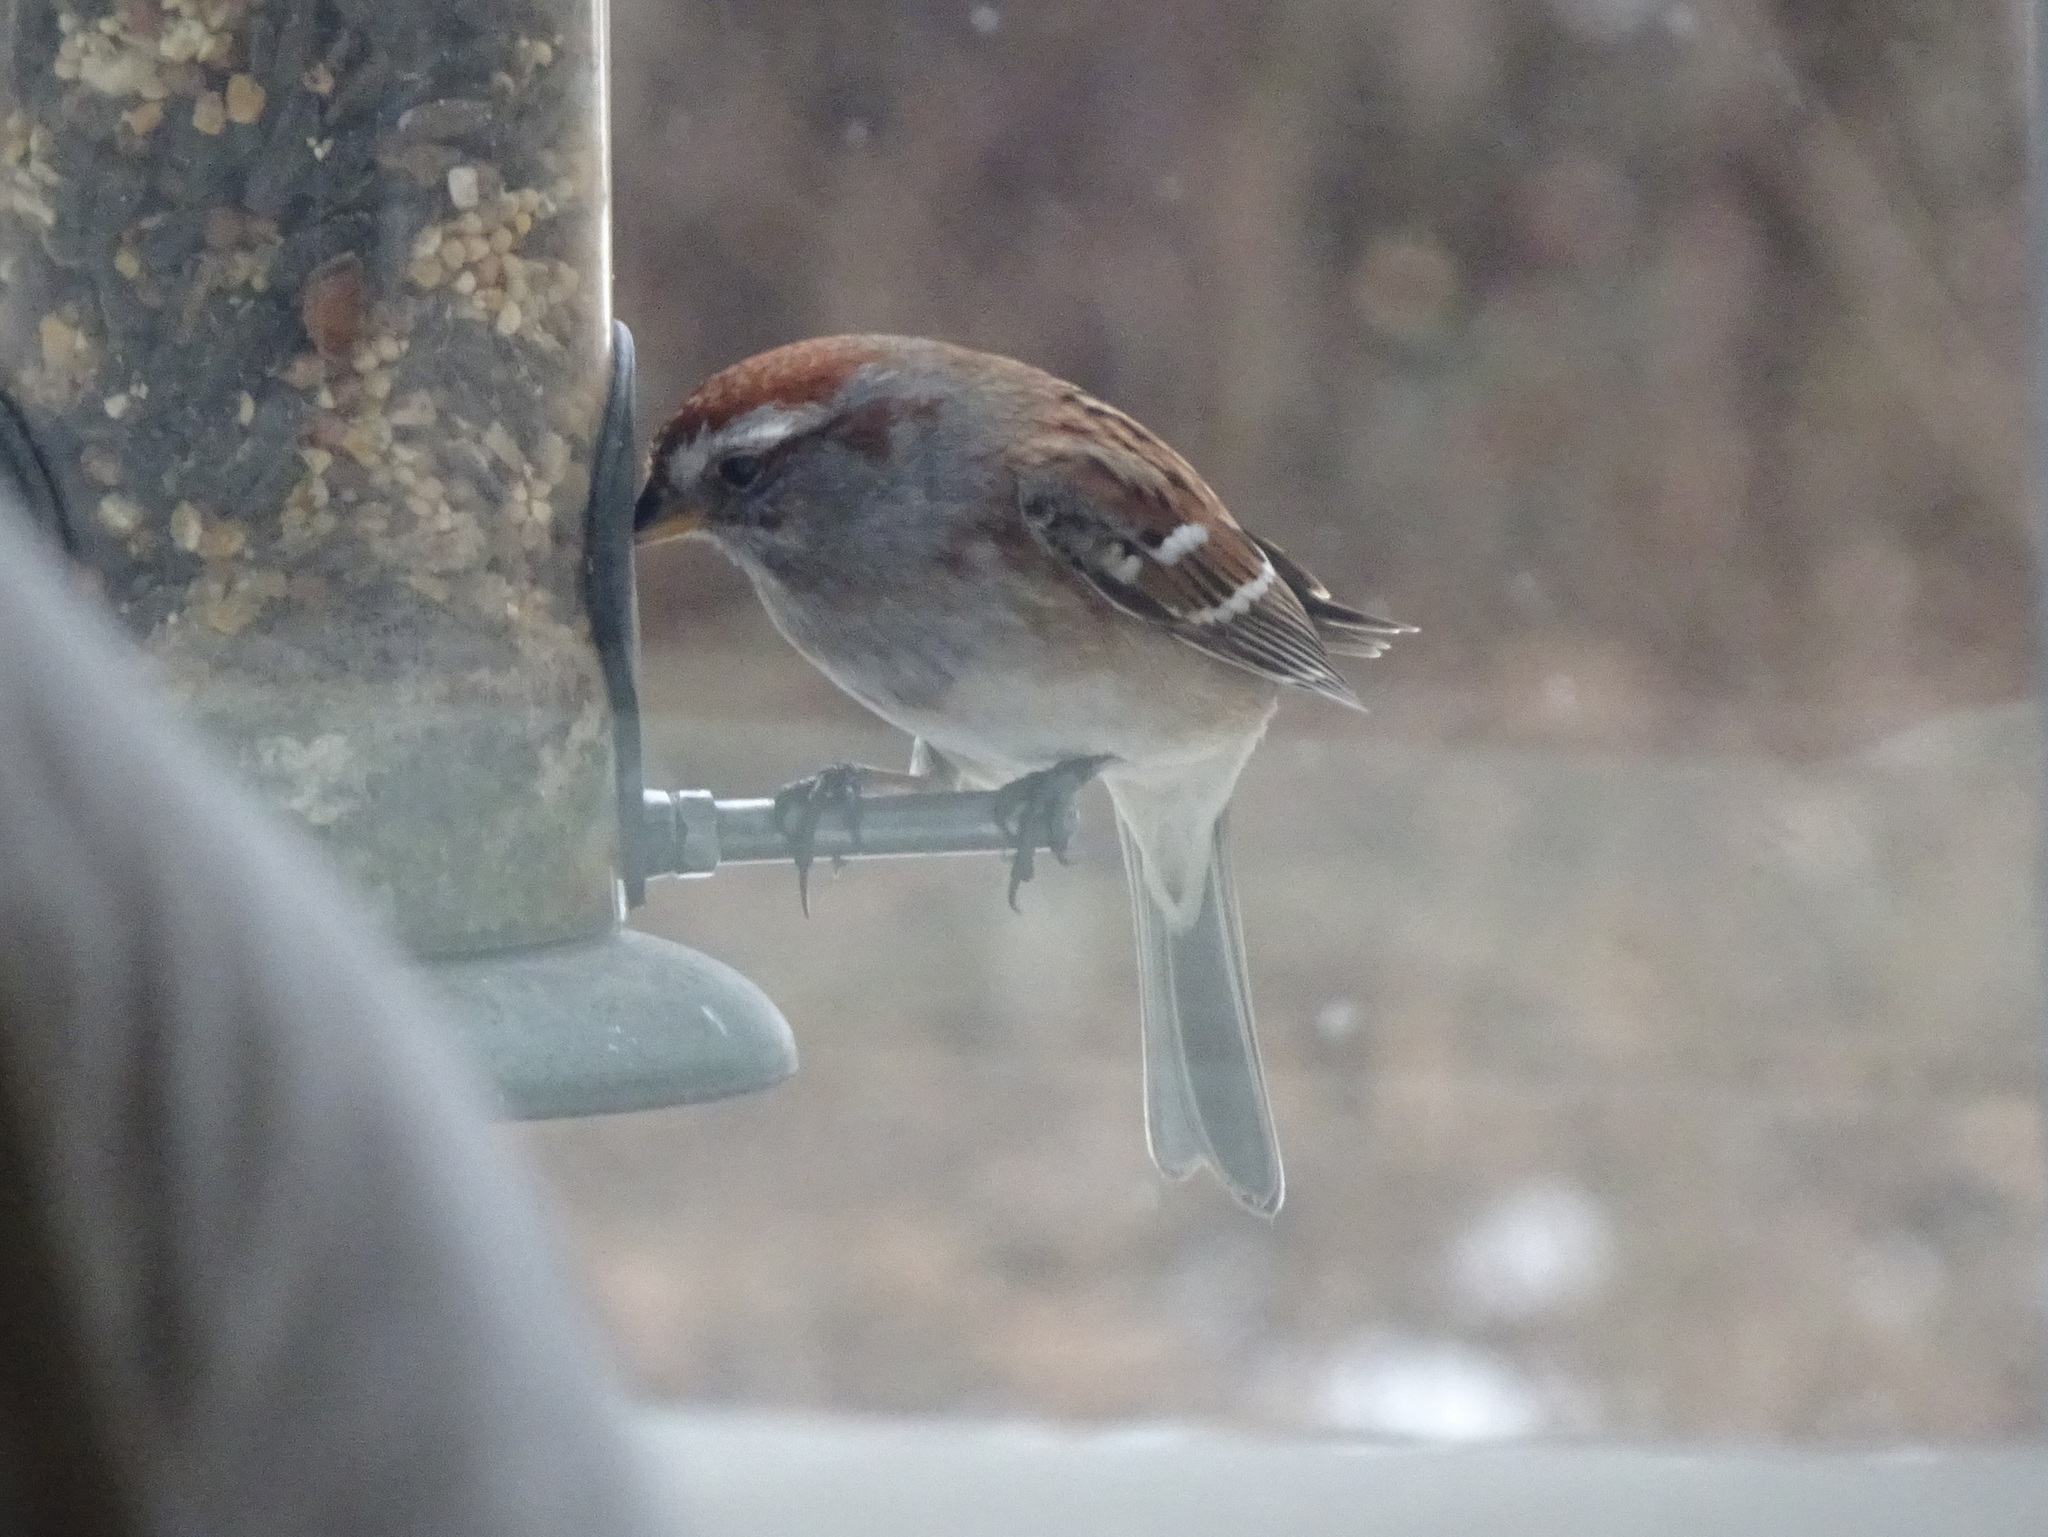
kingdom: Animalia
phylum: Chordata
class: Aves
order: Passeriformes
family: Passerellidae
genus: Spizelloides
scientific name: Spizelloides arborea
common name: American tree sparrow
